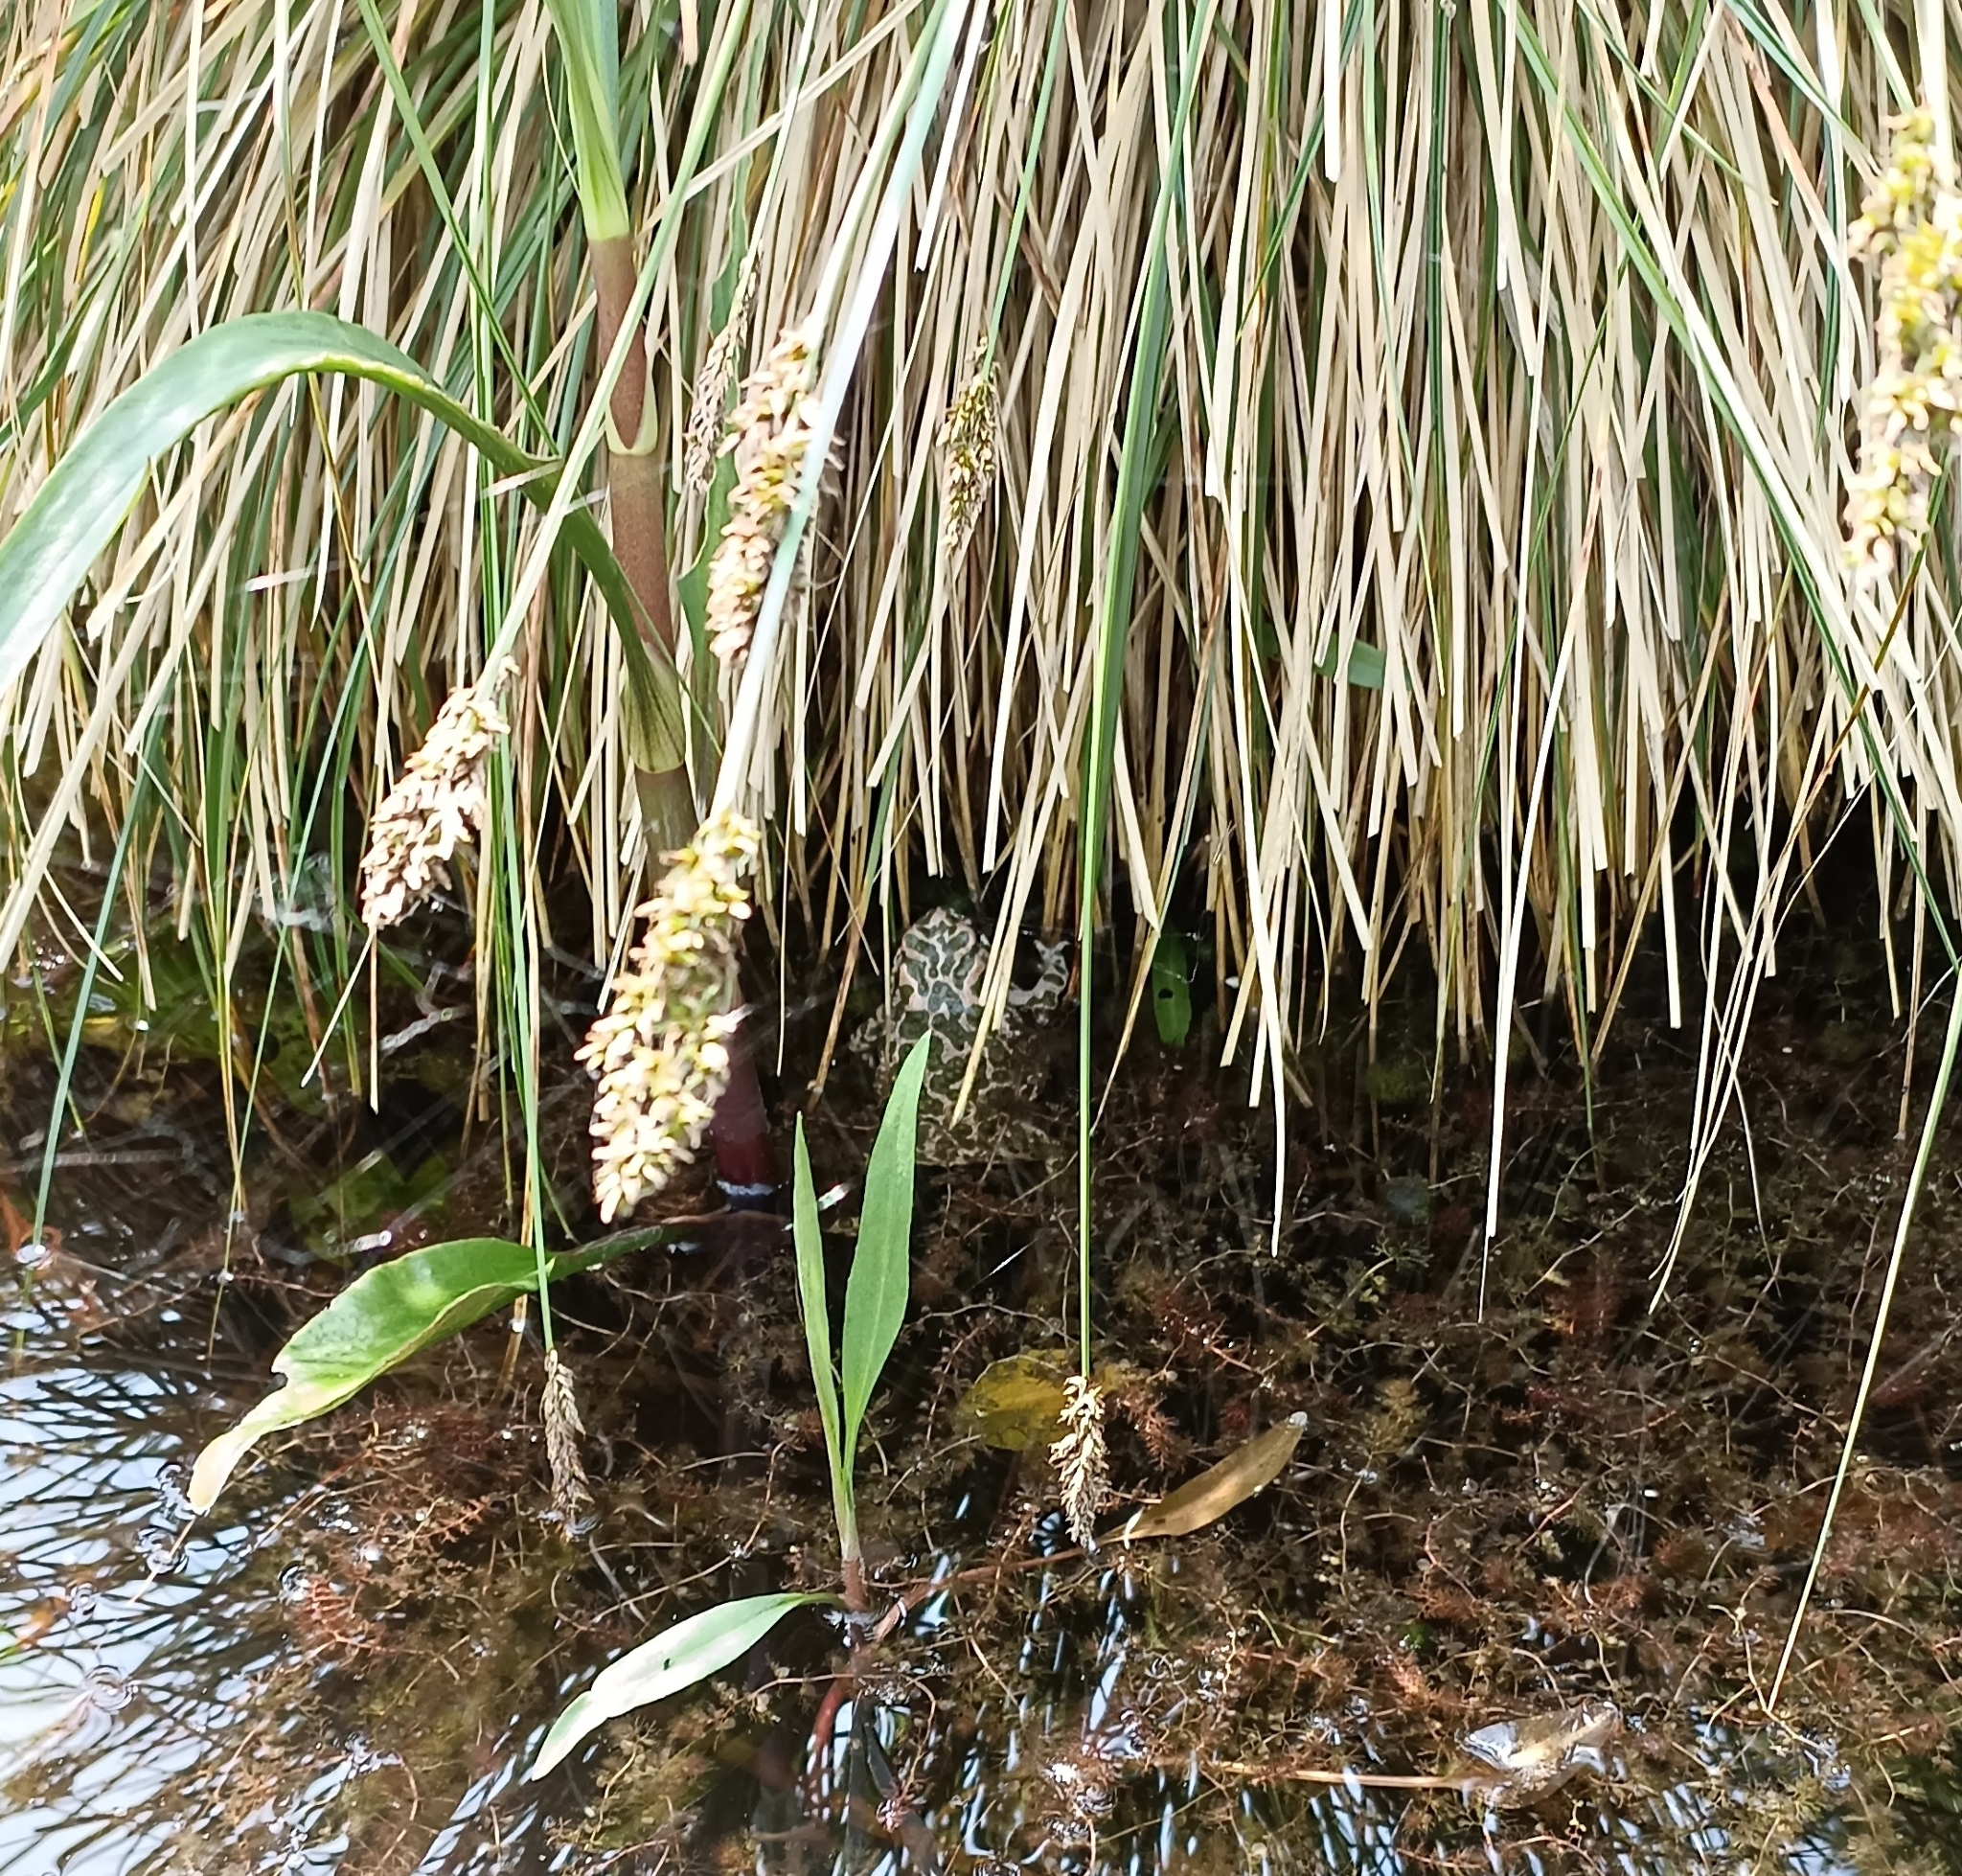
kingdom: Animalia
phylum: Chordata
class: Amphibia
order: Anura
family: Bufonidae
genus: Bufotes
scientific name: Bufotes viridis
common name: European green toad
